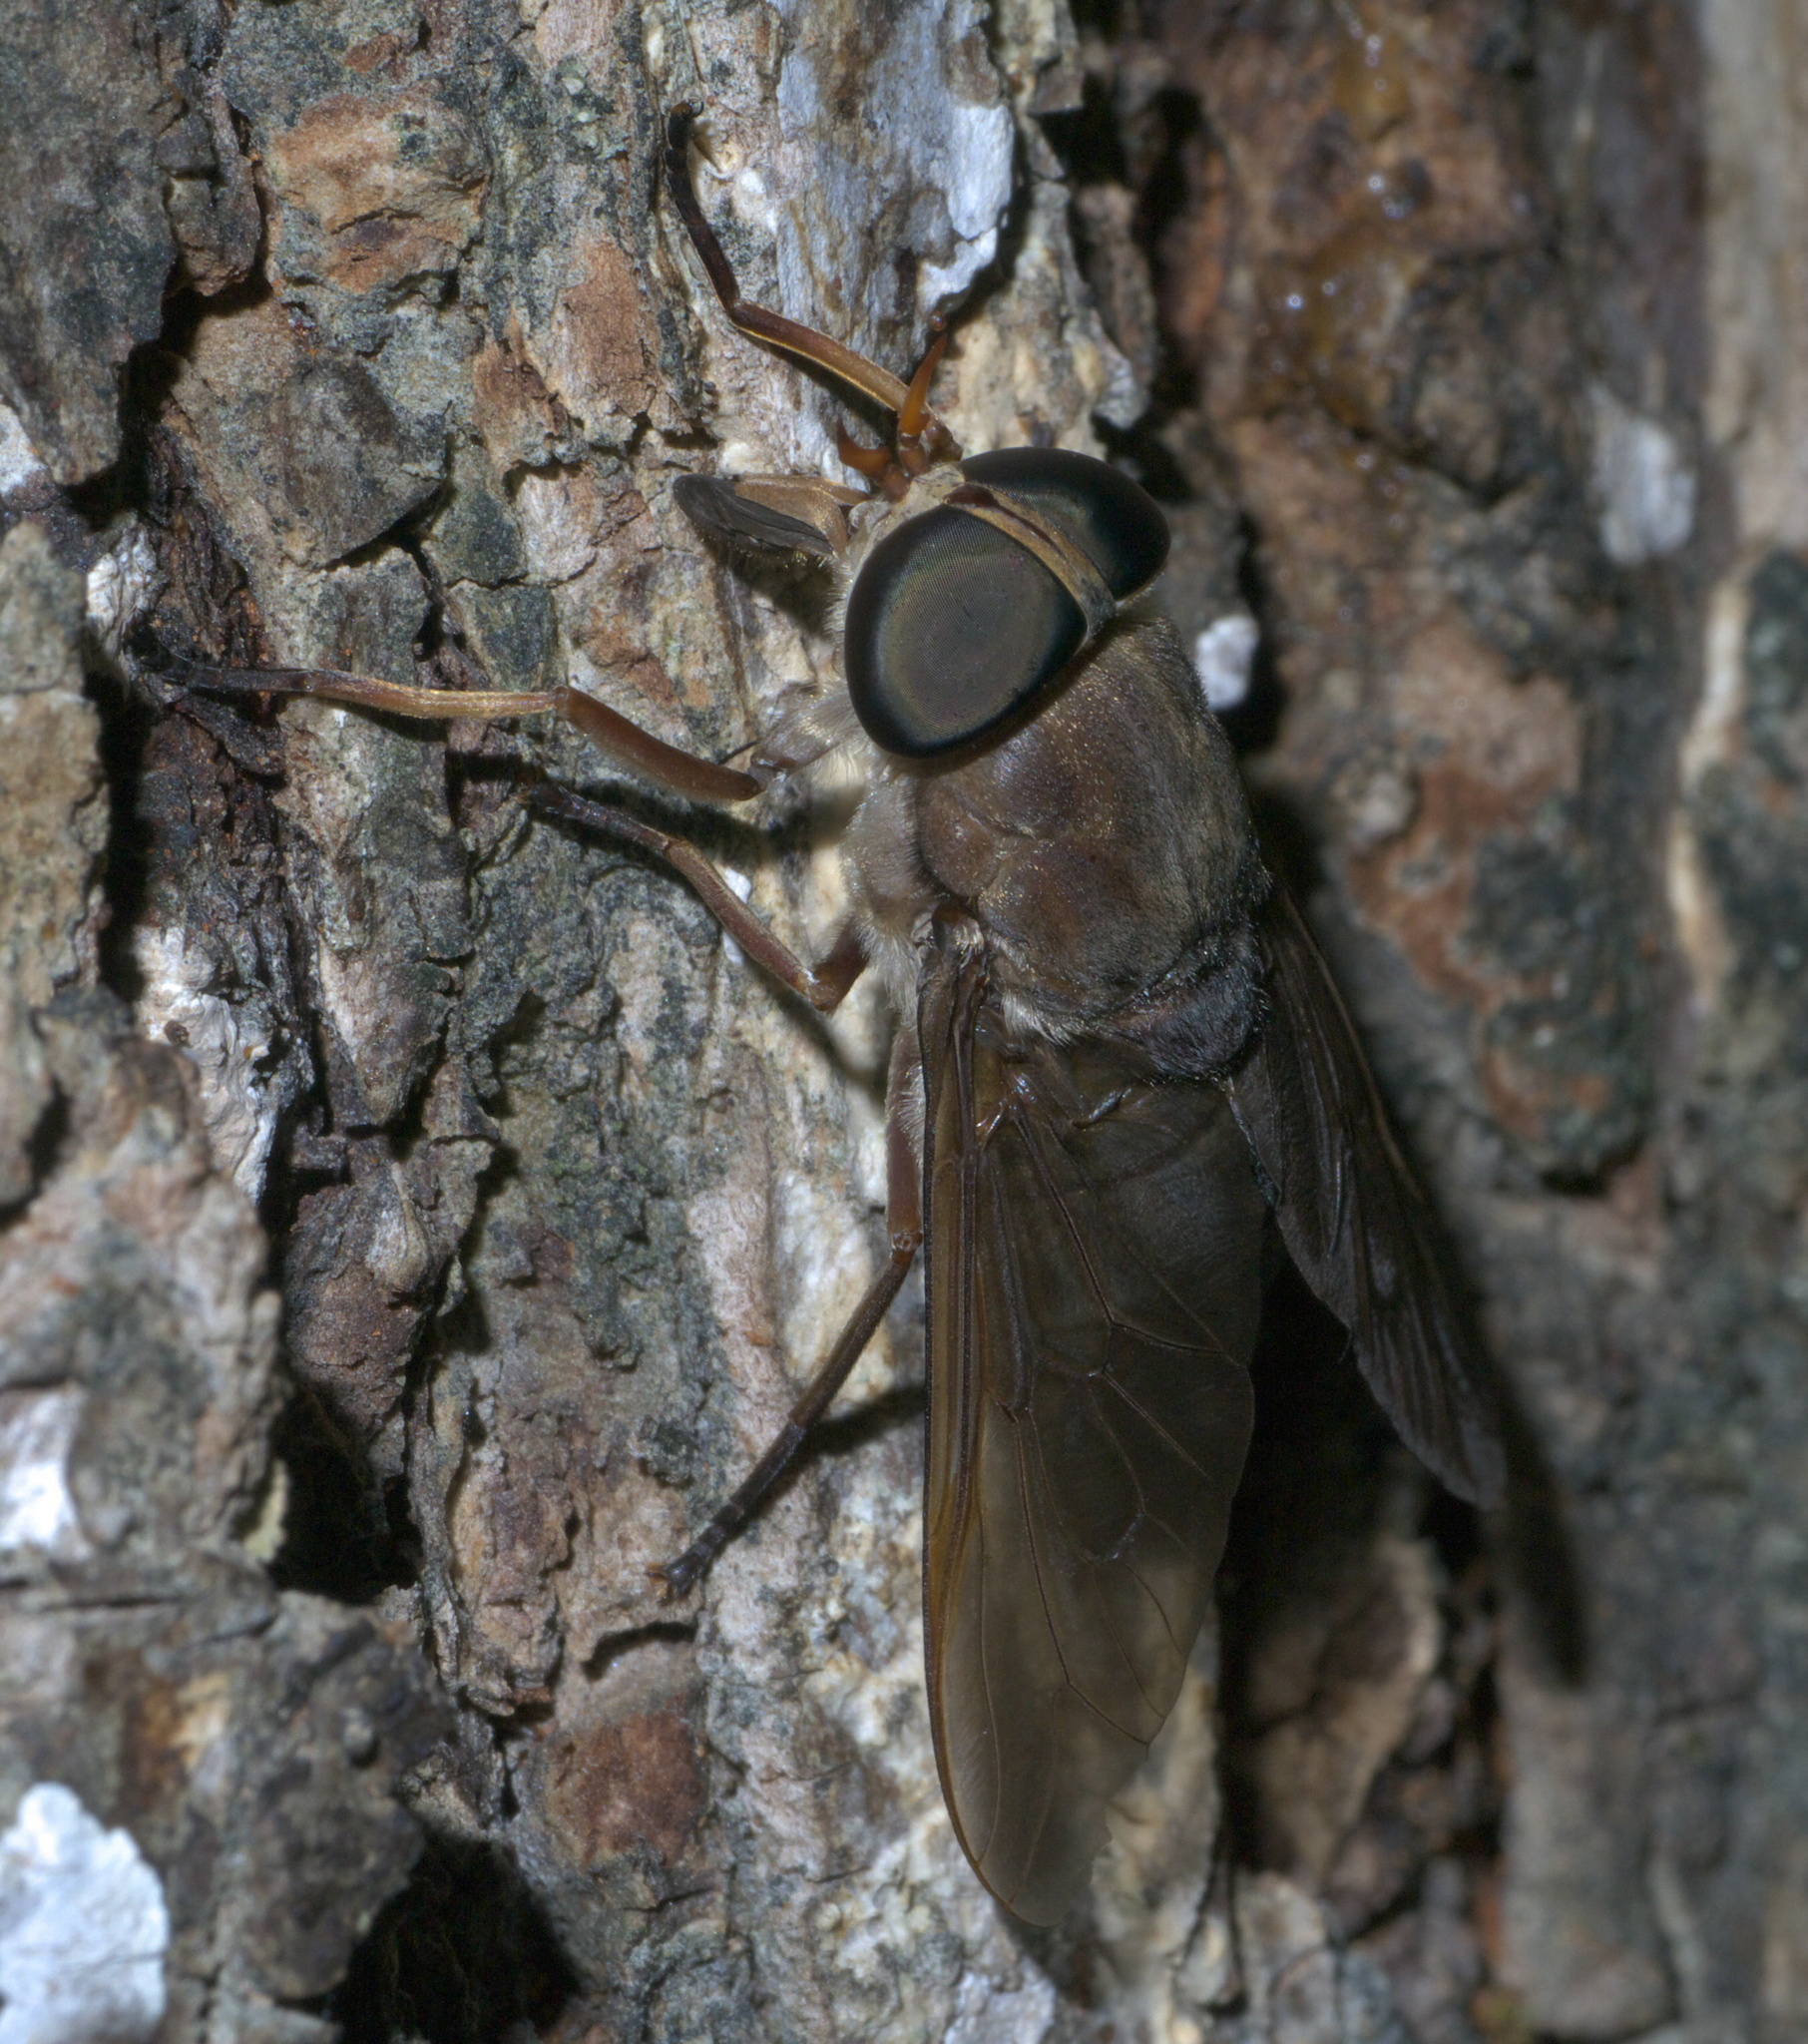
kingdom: Animalia
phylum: Arthropoda
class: Insecta
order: Diptera
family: Tabanidae
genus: Tabanus
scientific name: Tabanus calens
